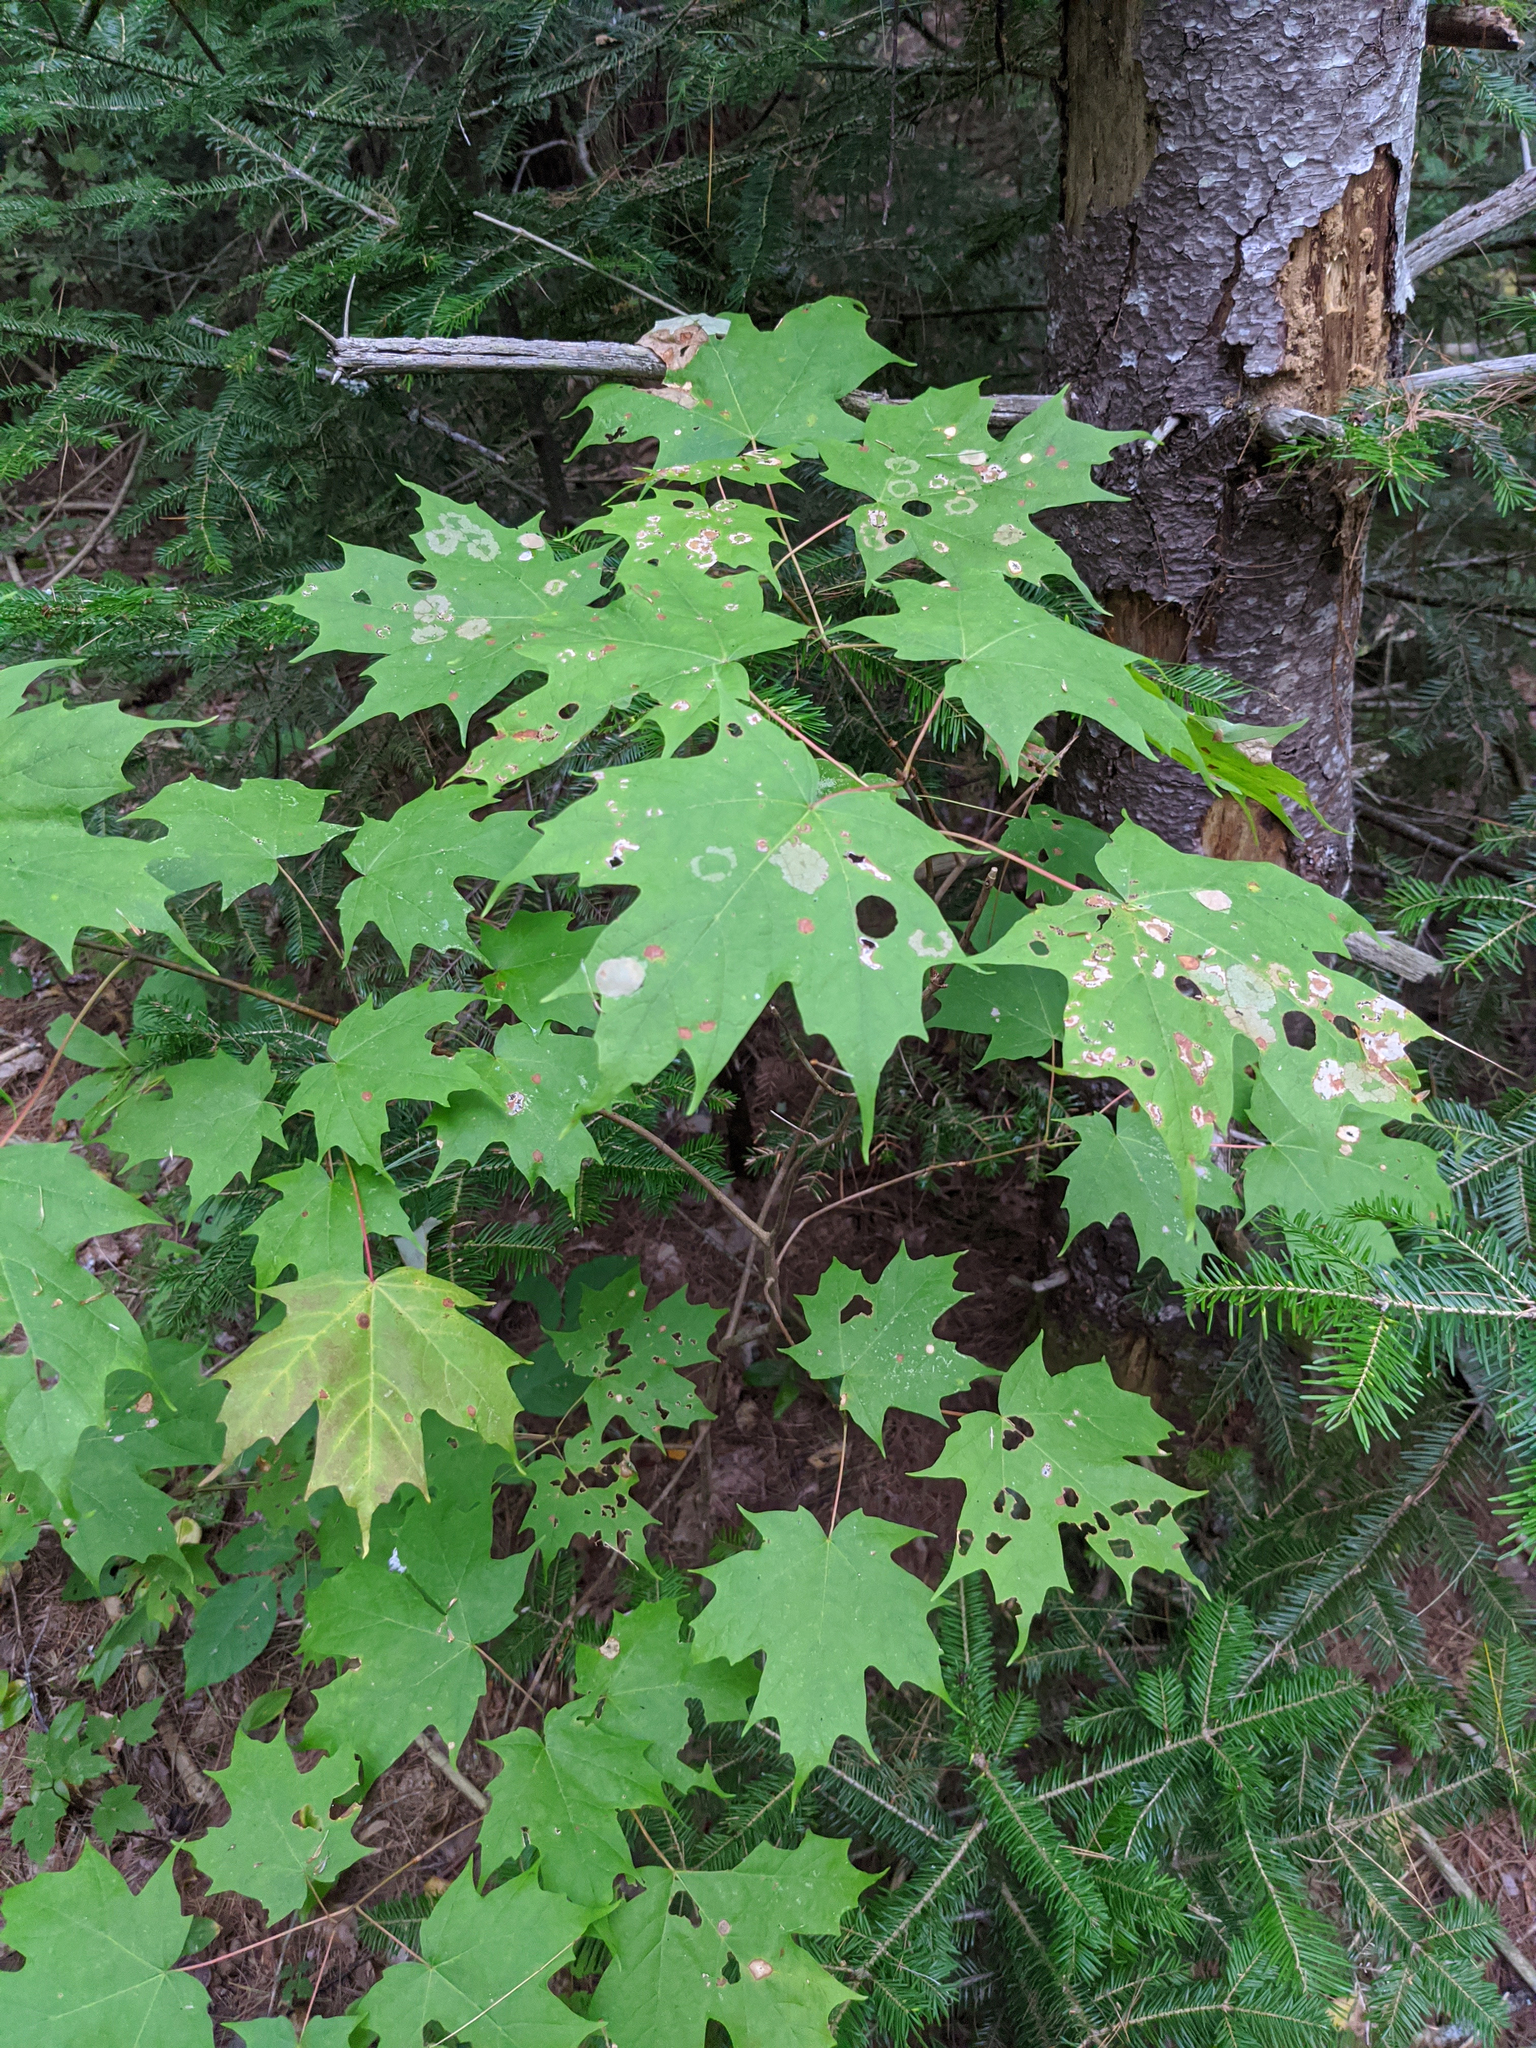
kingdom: Plantae
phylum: Tracheophyta
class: Magnoliopsida
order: Sapindales
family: Sapindaceae
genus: Acer
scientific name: Acer saccharum
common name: Sugar maple
